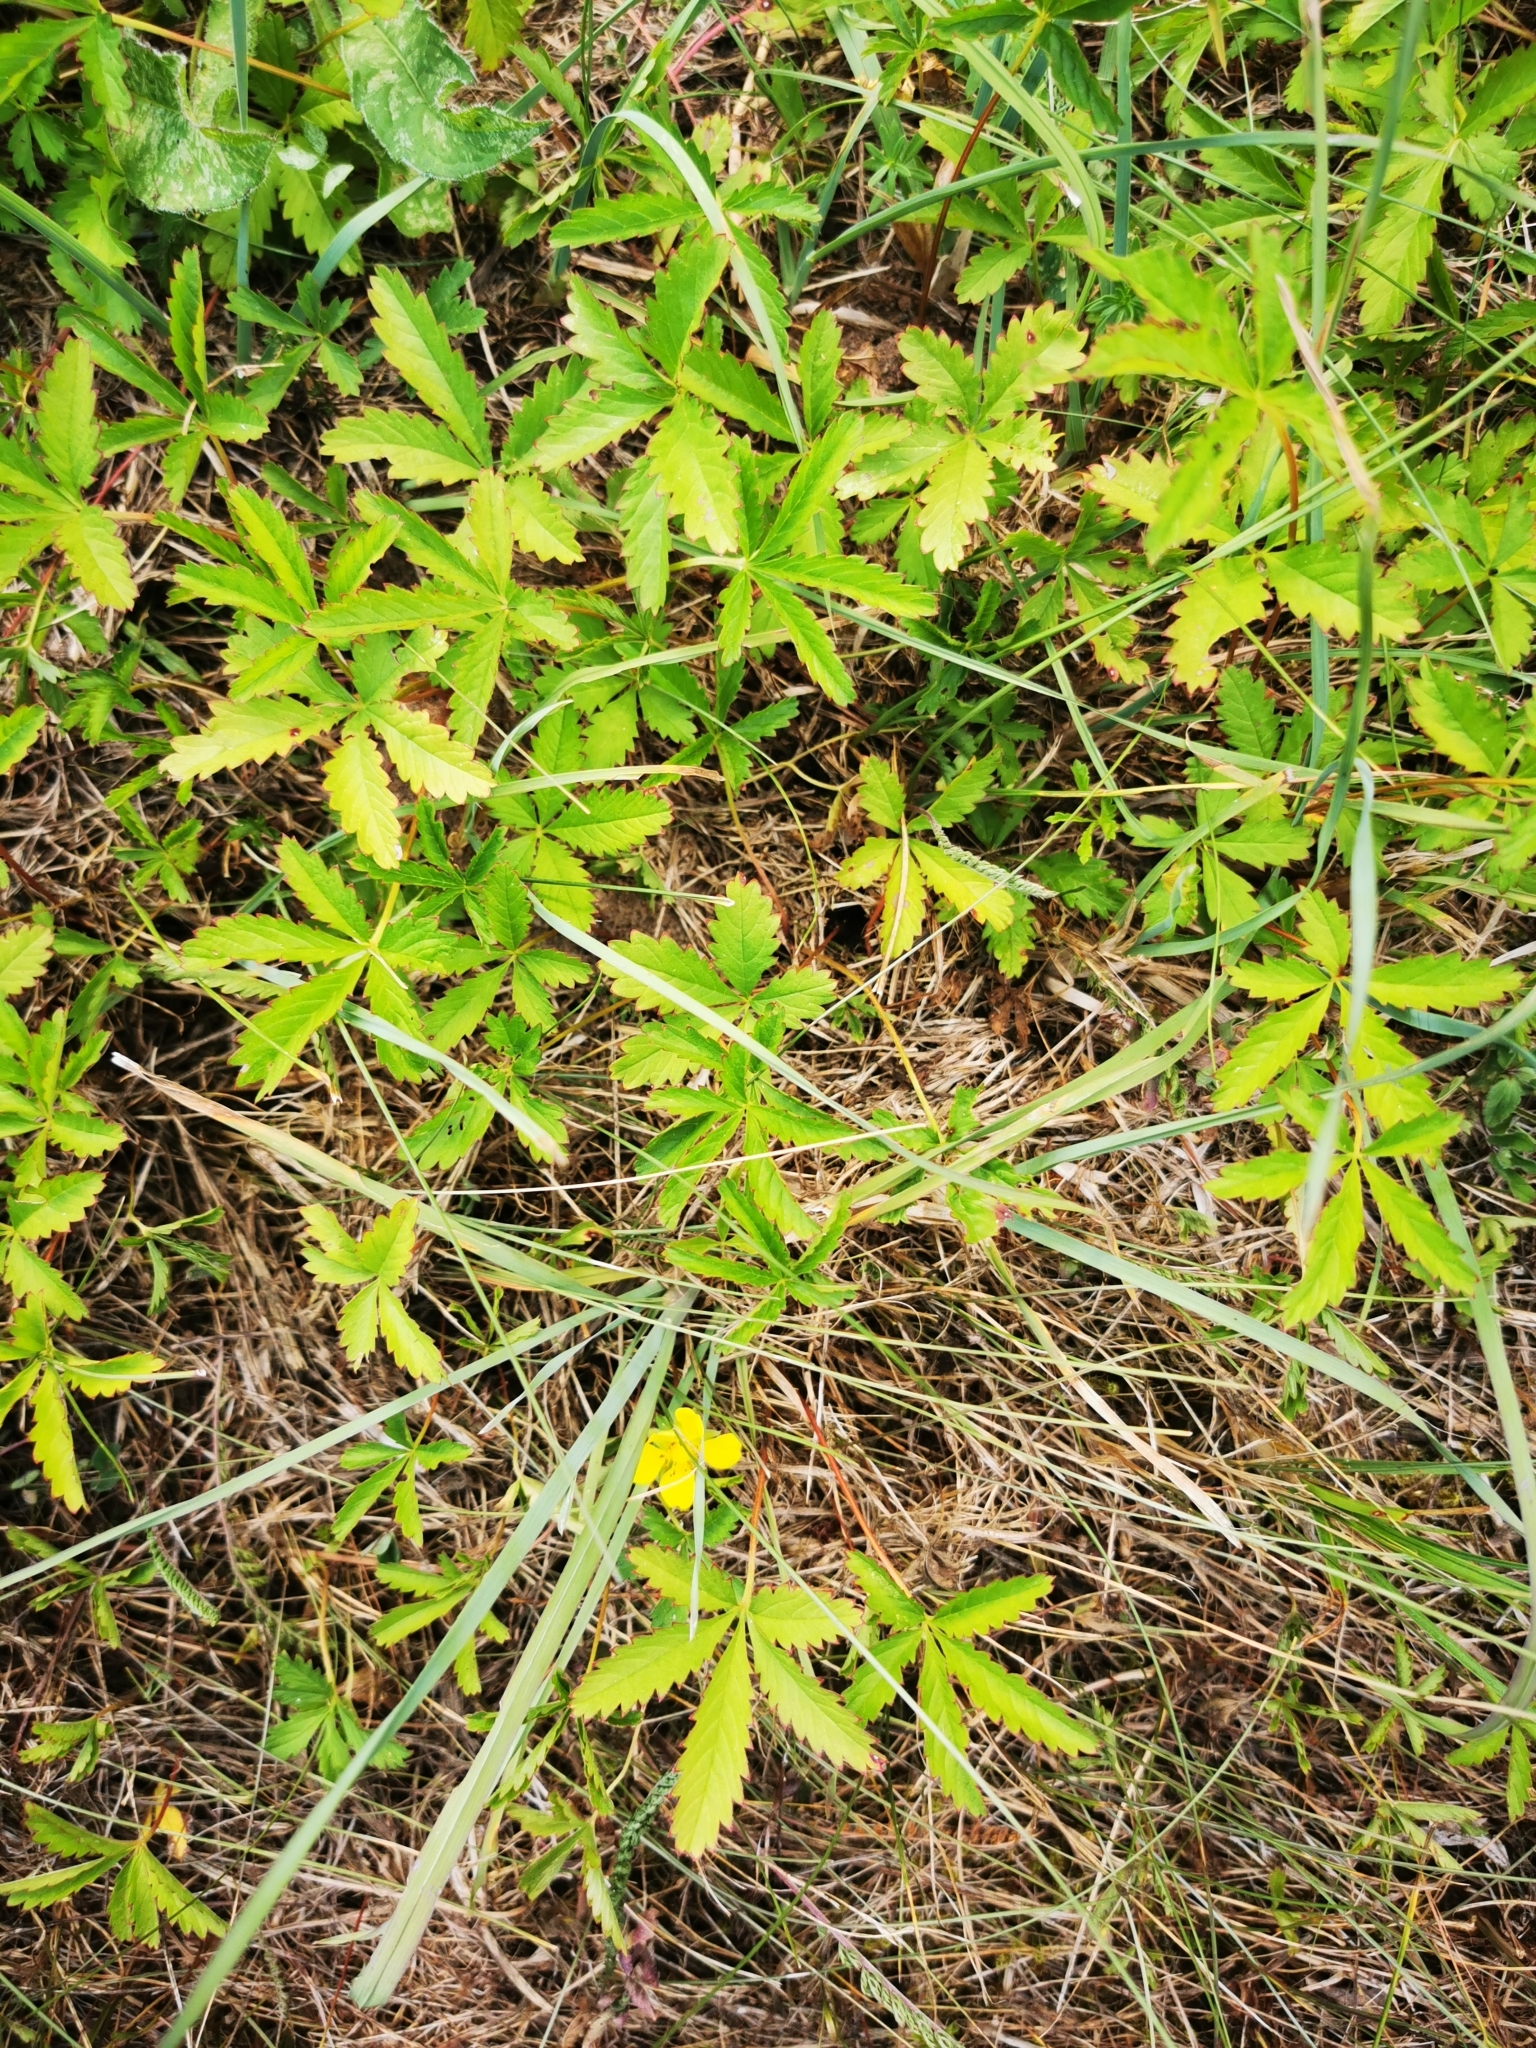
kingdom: Plantae
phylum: Tracheophyta
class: Magnoliopsida
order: Rosales
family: Rosaceae
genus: Potentilla
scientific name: Potentilla reptans
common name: Creeping cinquefoil
